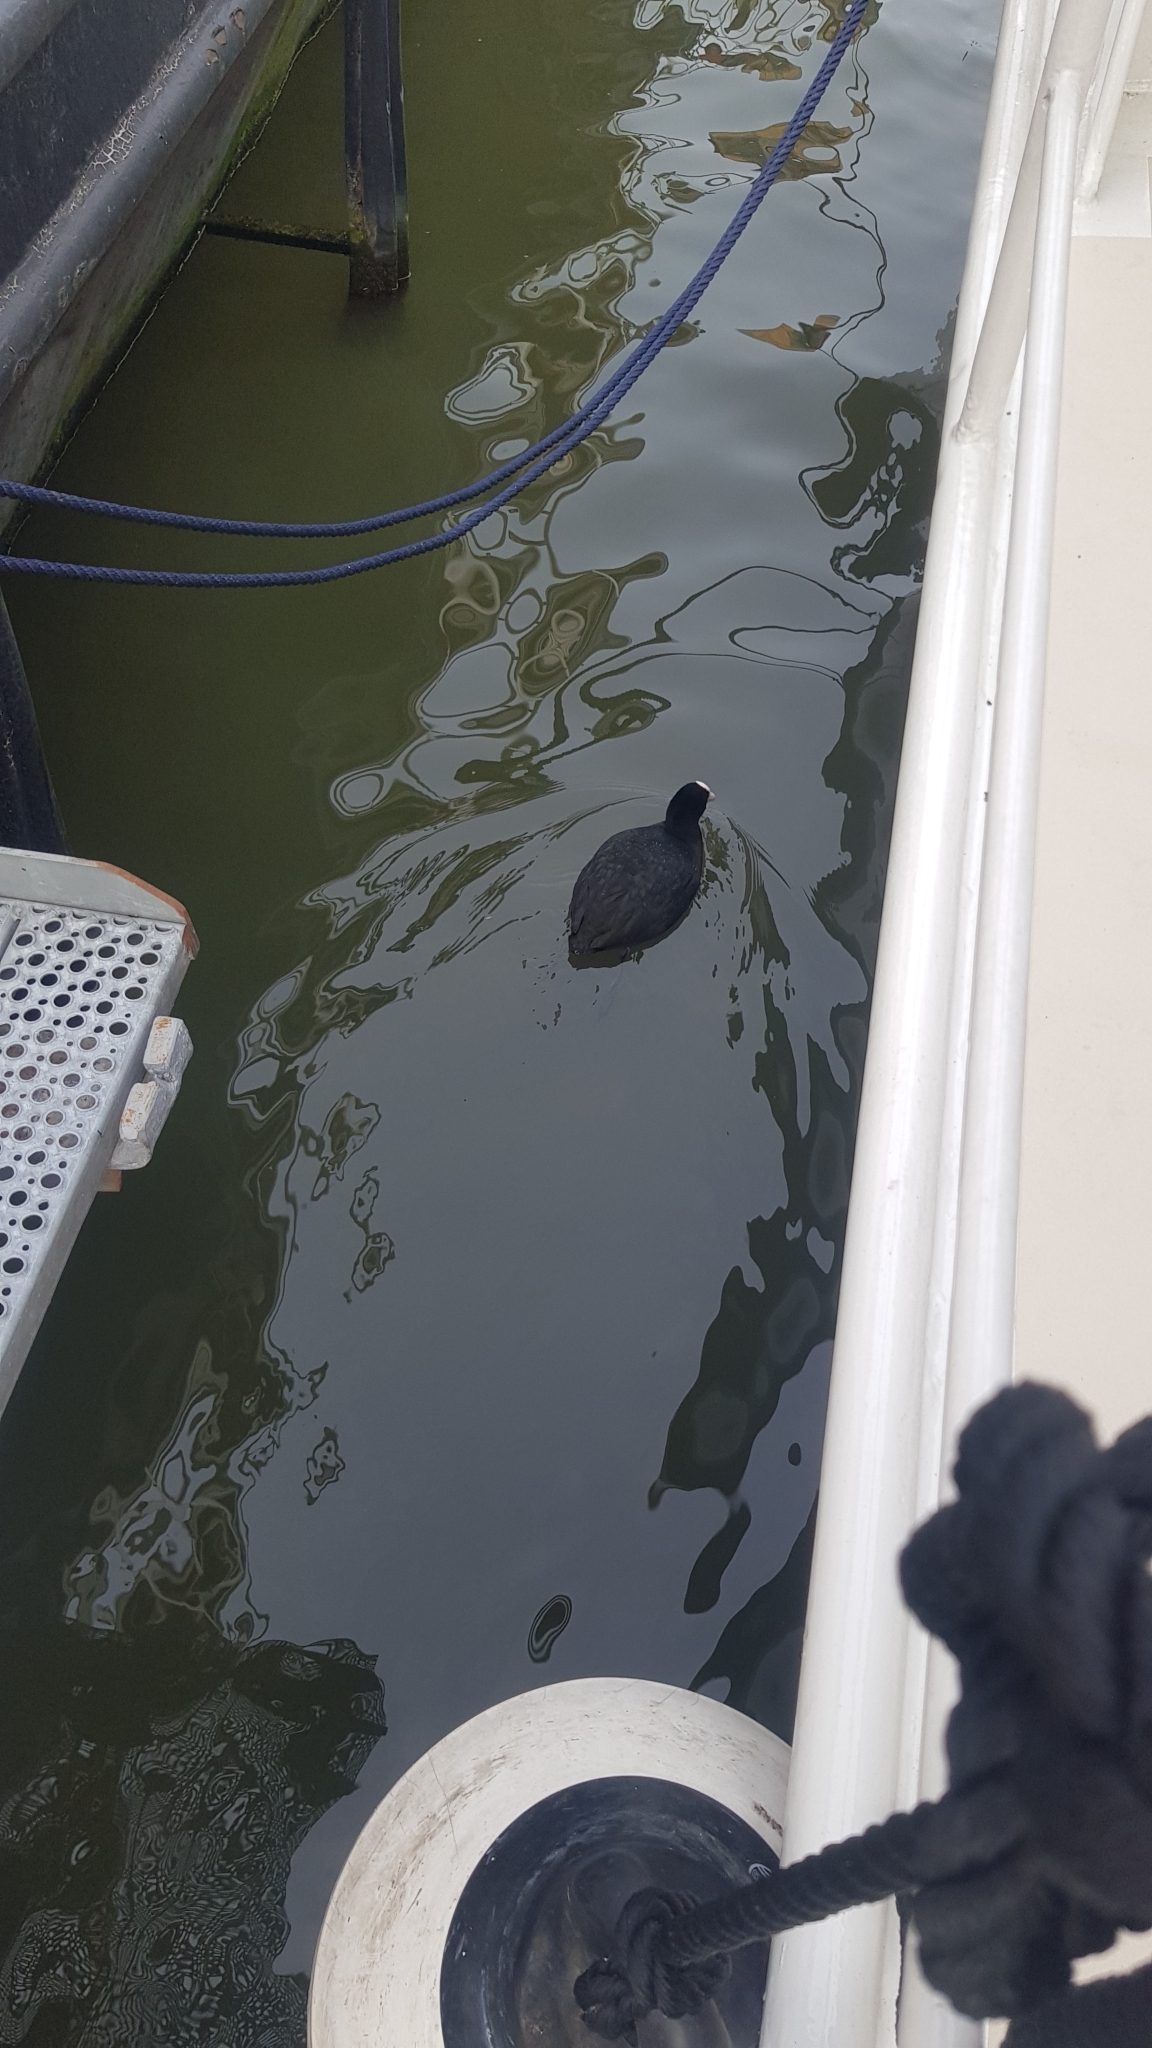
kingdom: Animalia
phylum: Chordata
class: Aves
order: Gruiformes
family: Rallidae
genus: Fulica
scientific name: Fulica atra
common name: Eurasian coot
